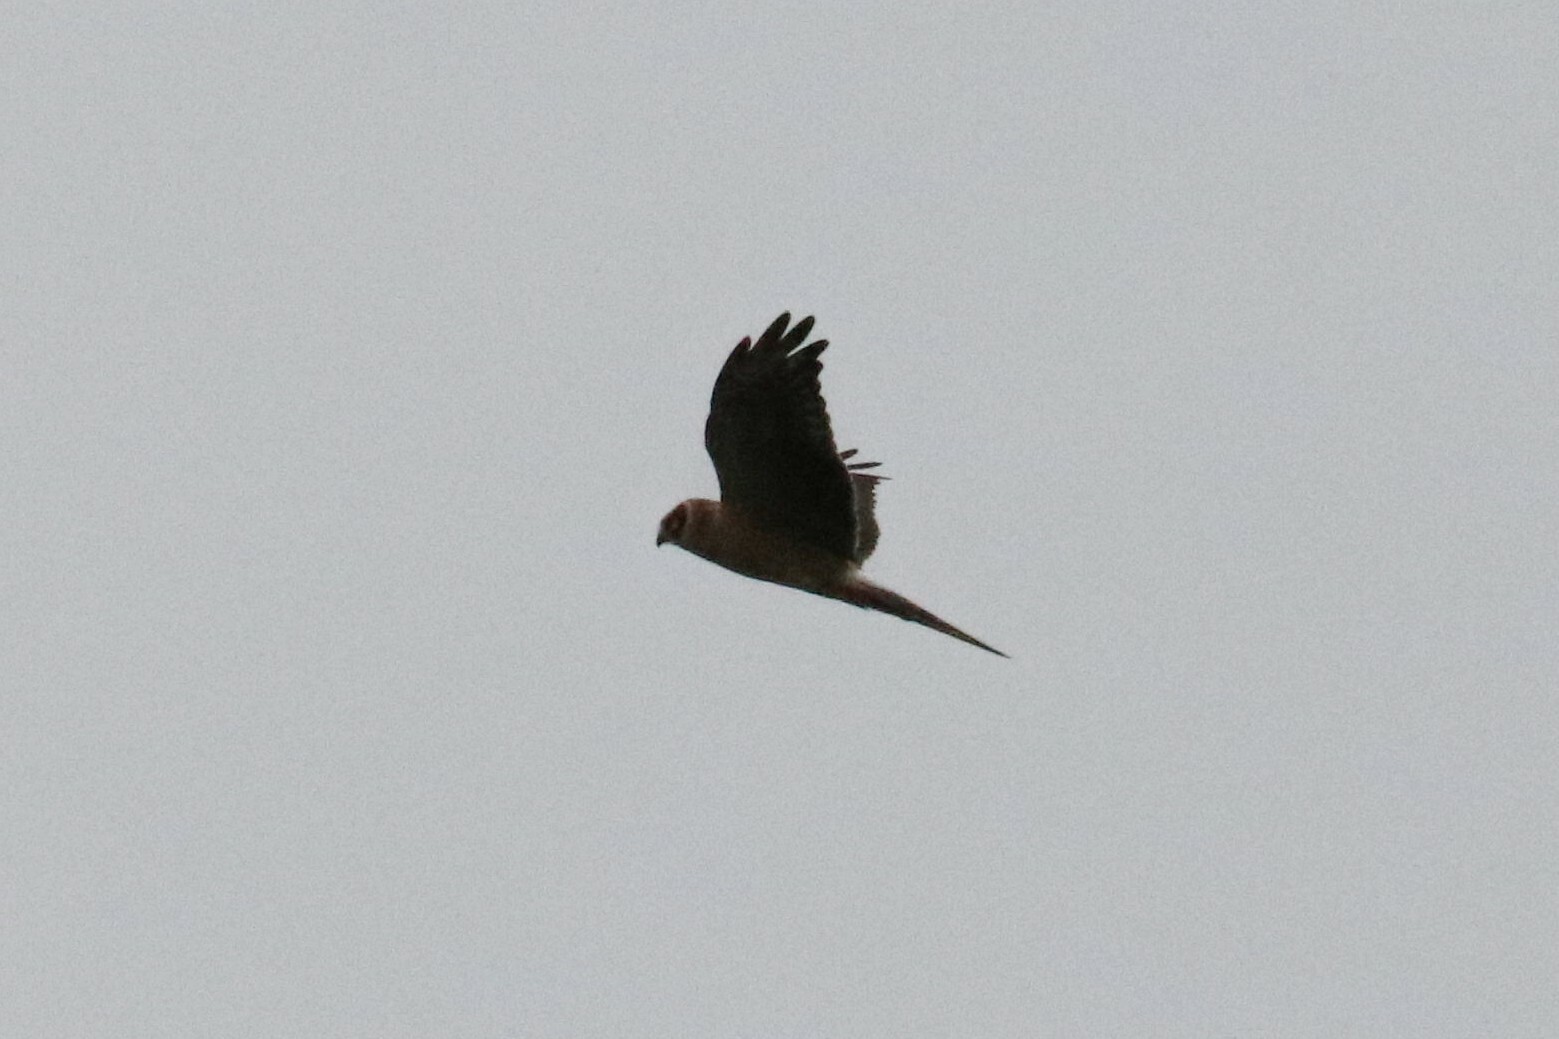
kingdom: Animalia
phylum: Chordata
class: Aves
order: Accipitriformes
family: Accipitridae
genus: Circus
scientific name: Circus macrourus
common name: Pallid harrier
